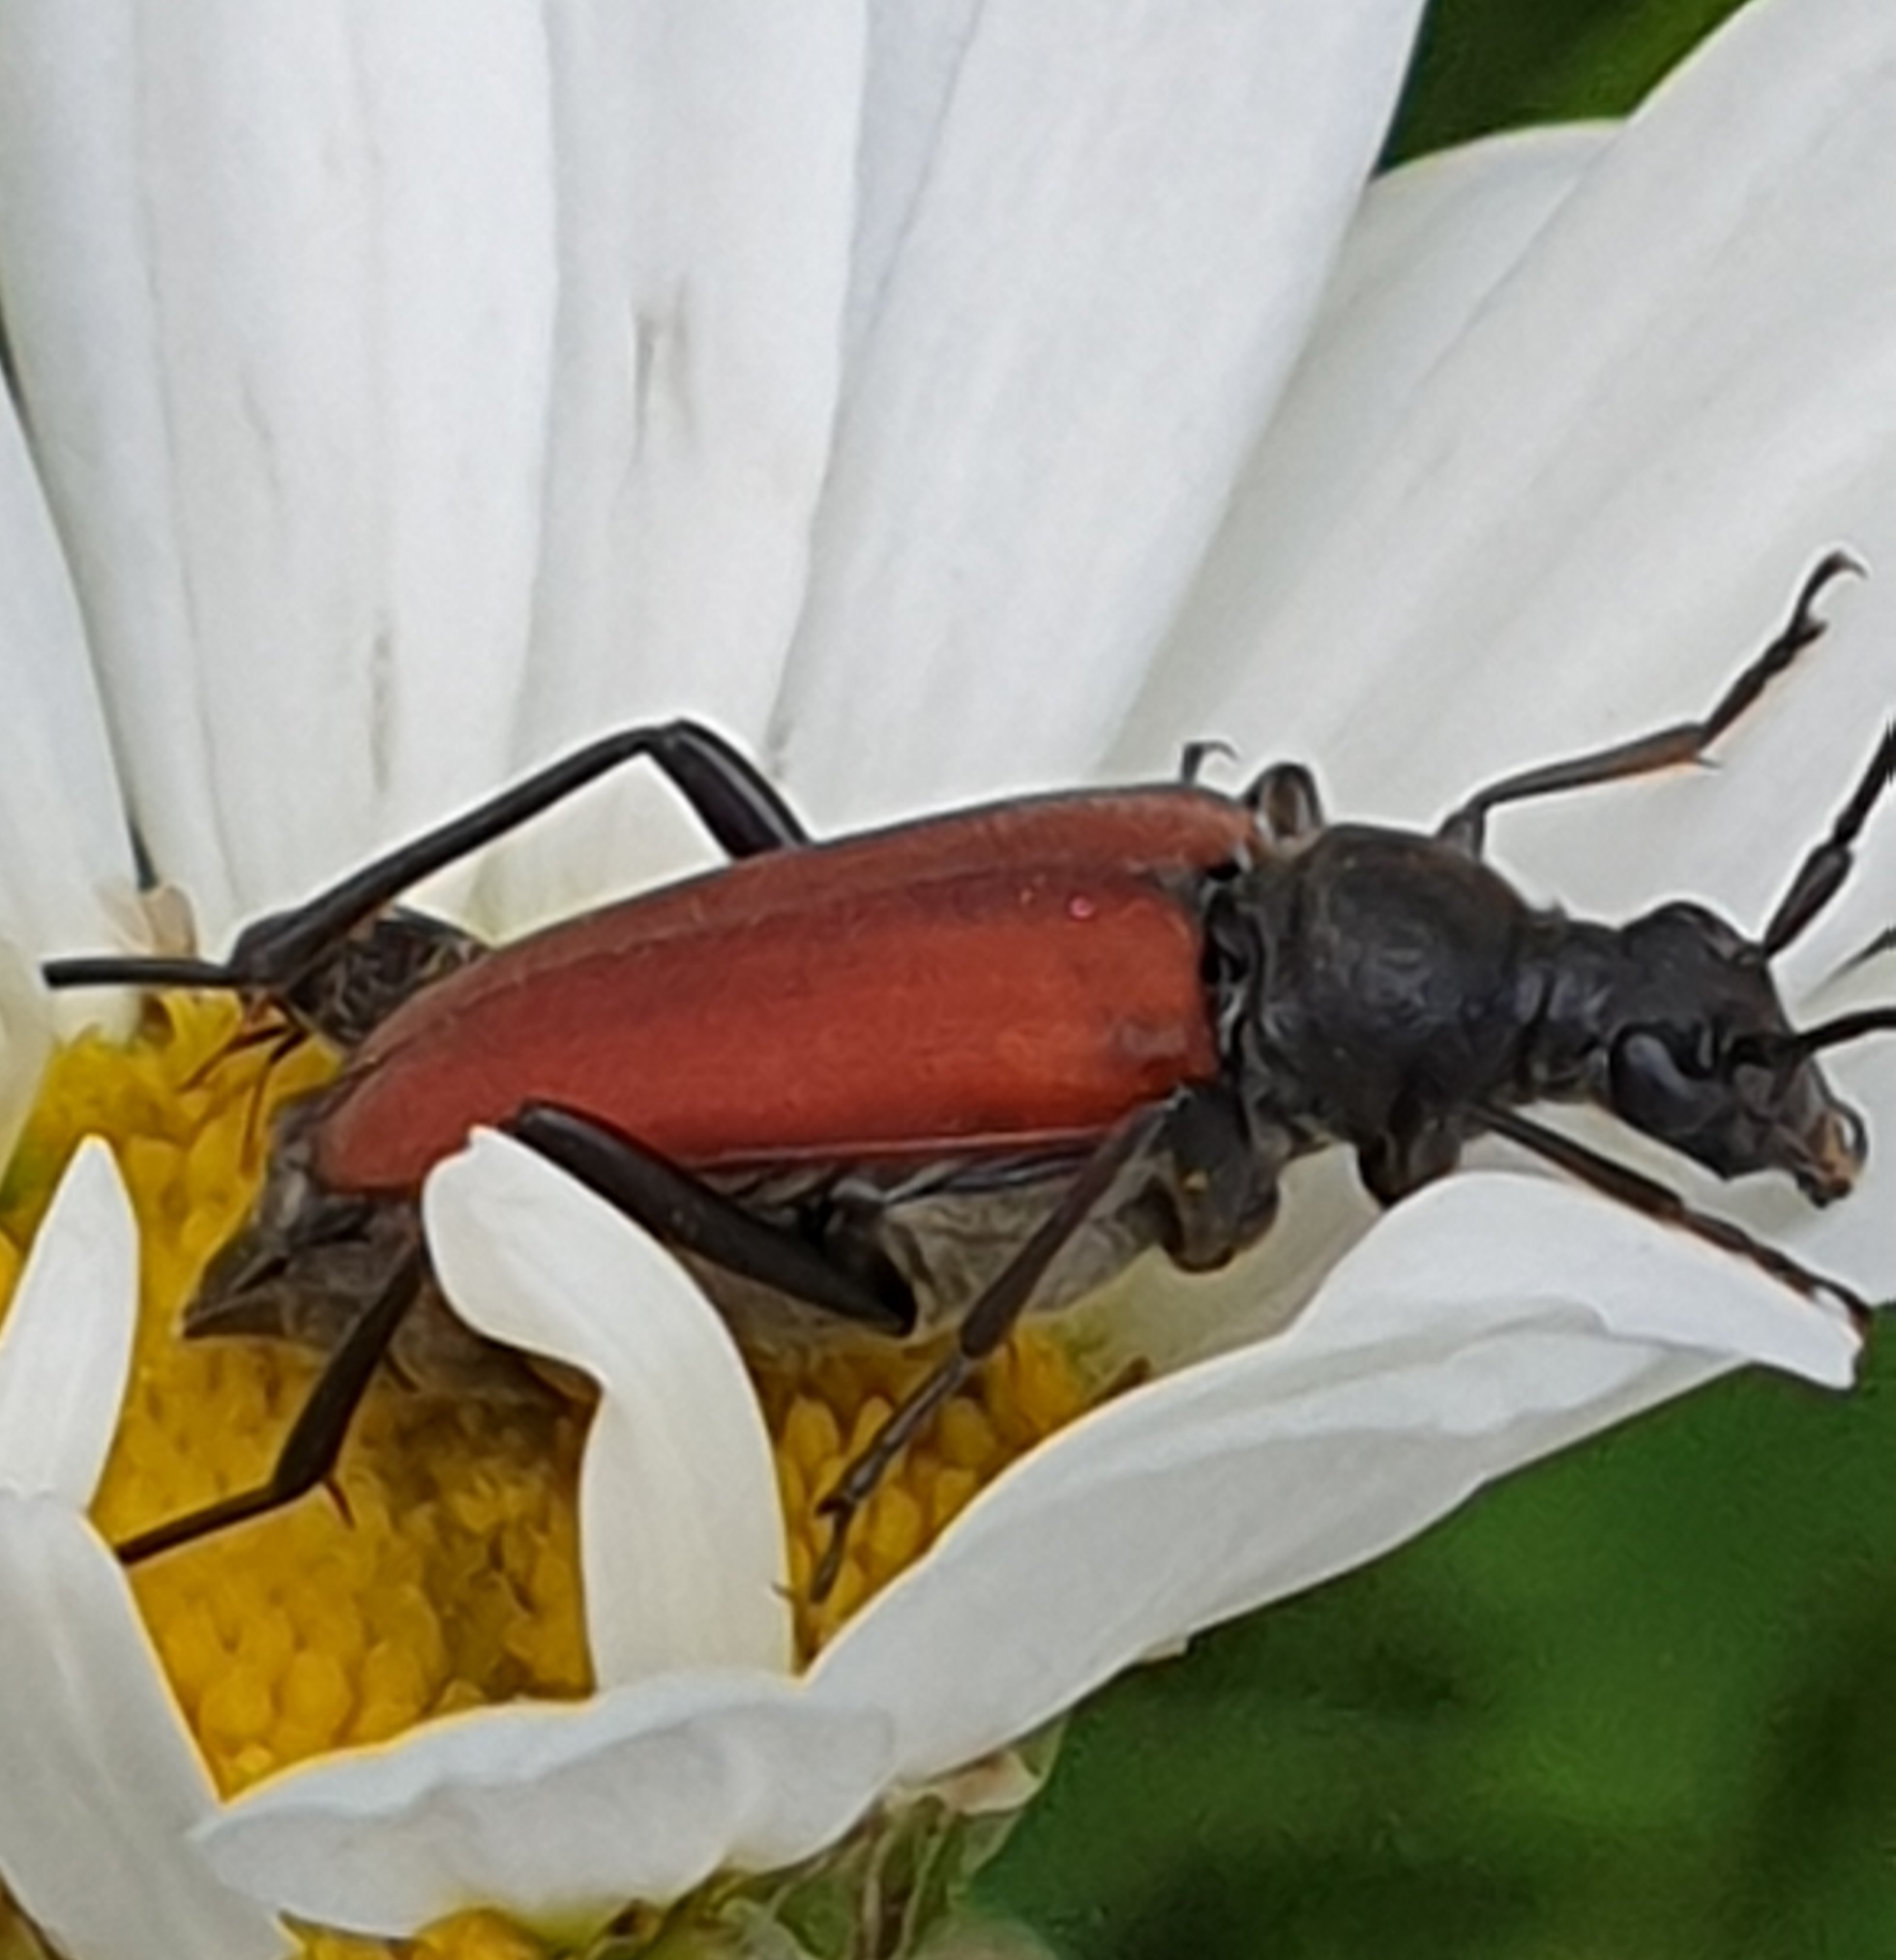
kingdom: Animalia
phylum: Arthropoda
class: Insecta
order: Coleoptera
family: Cerambycidae
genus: Anastrangalia
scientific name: Anastrangalia sanguinolenta
